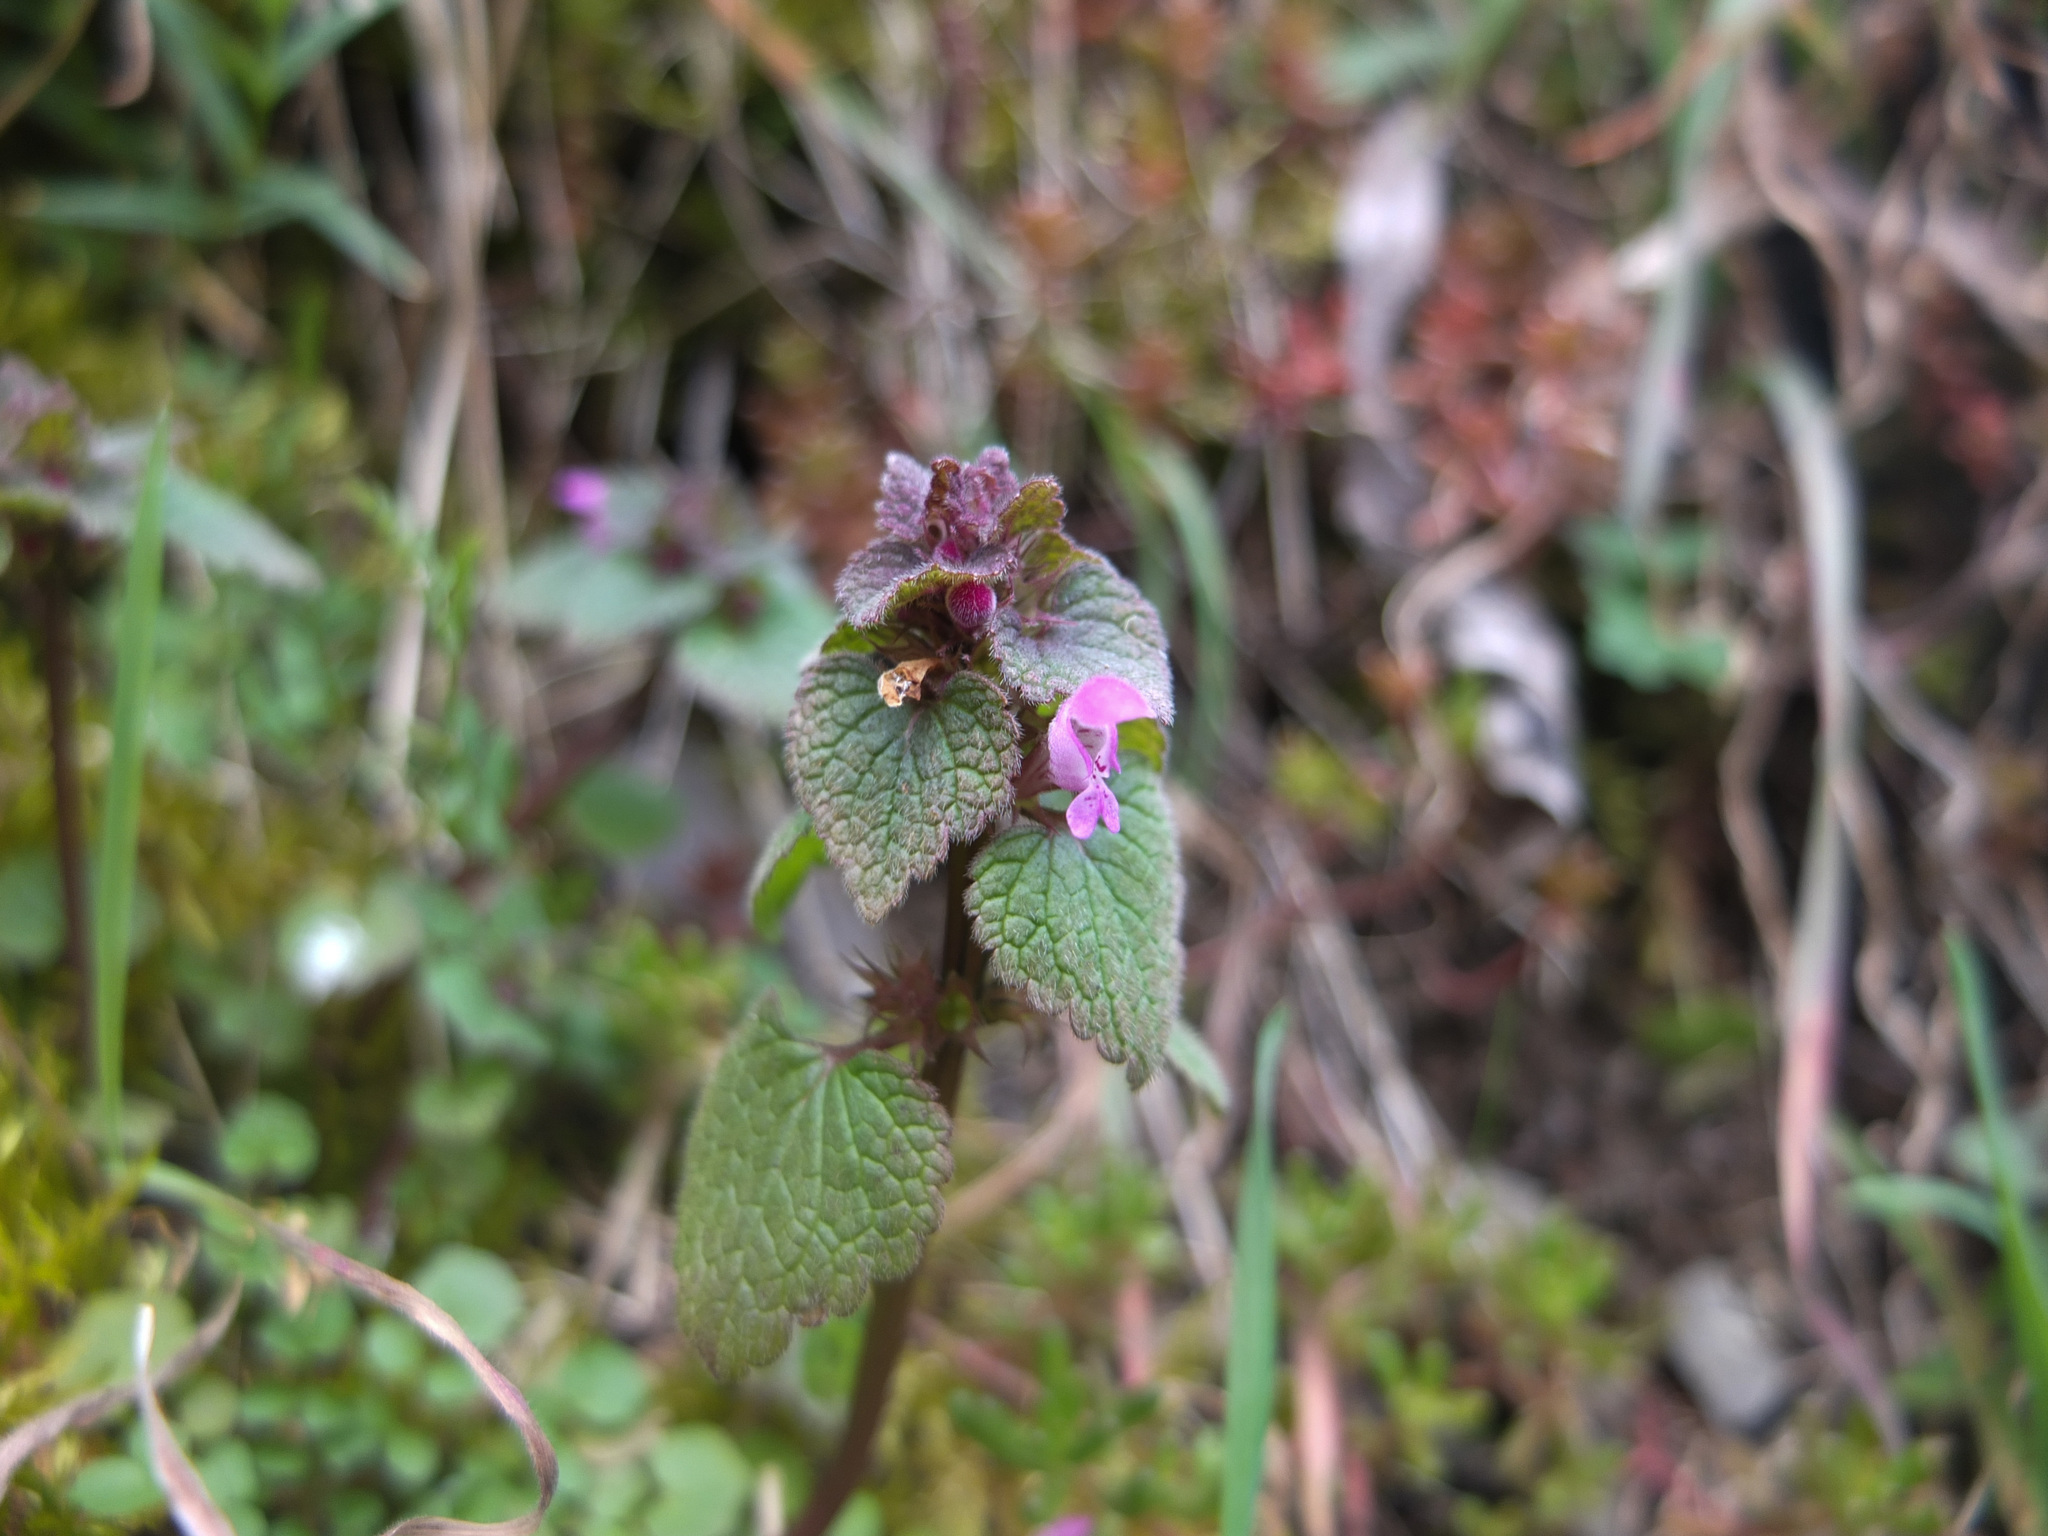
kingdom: Plantae
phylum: Tracheophyta
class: Magnoliopsida
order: Lamiales
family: Lamiaceae
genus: Lamium
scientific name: Lamium purpureum
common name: Red dead-nettle
